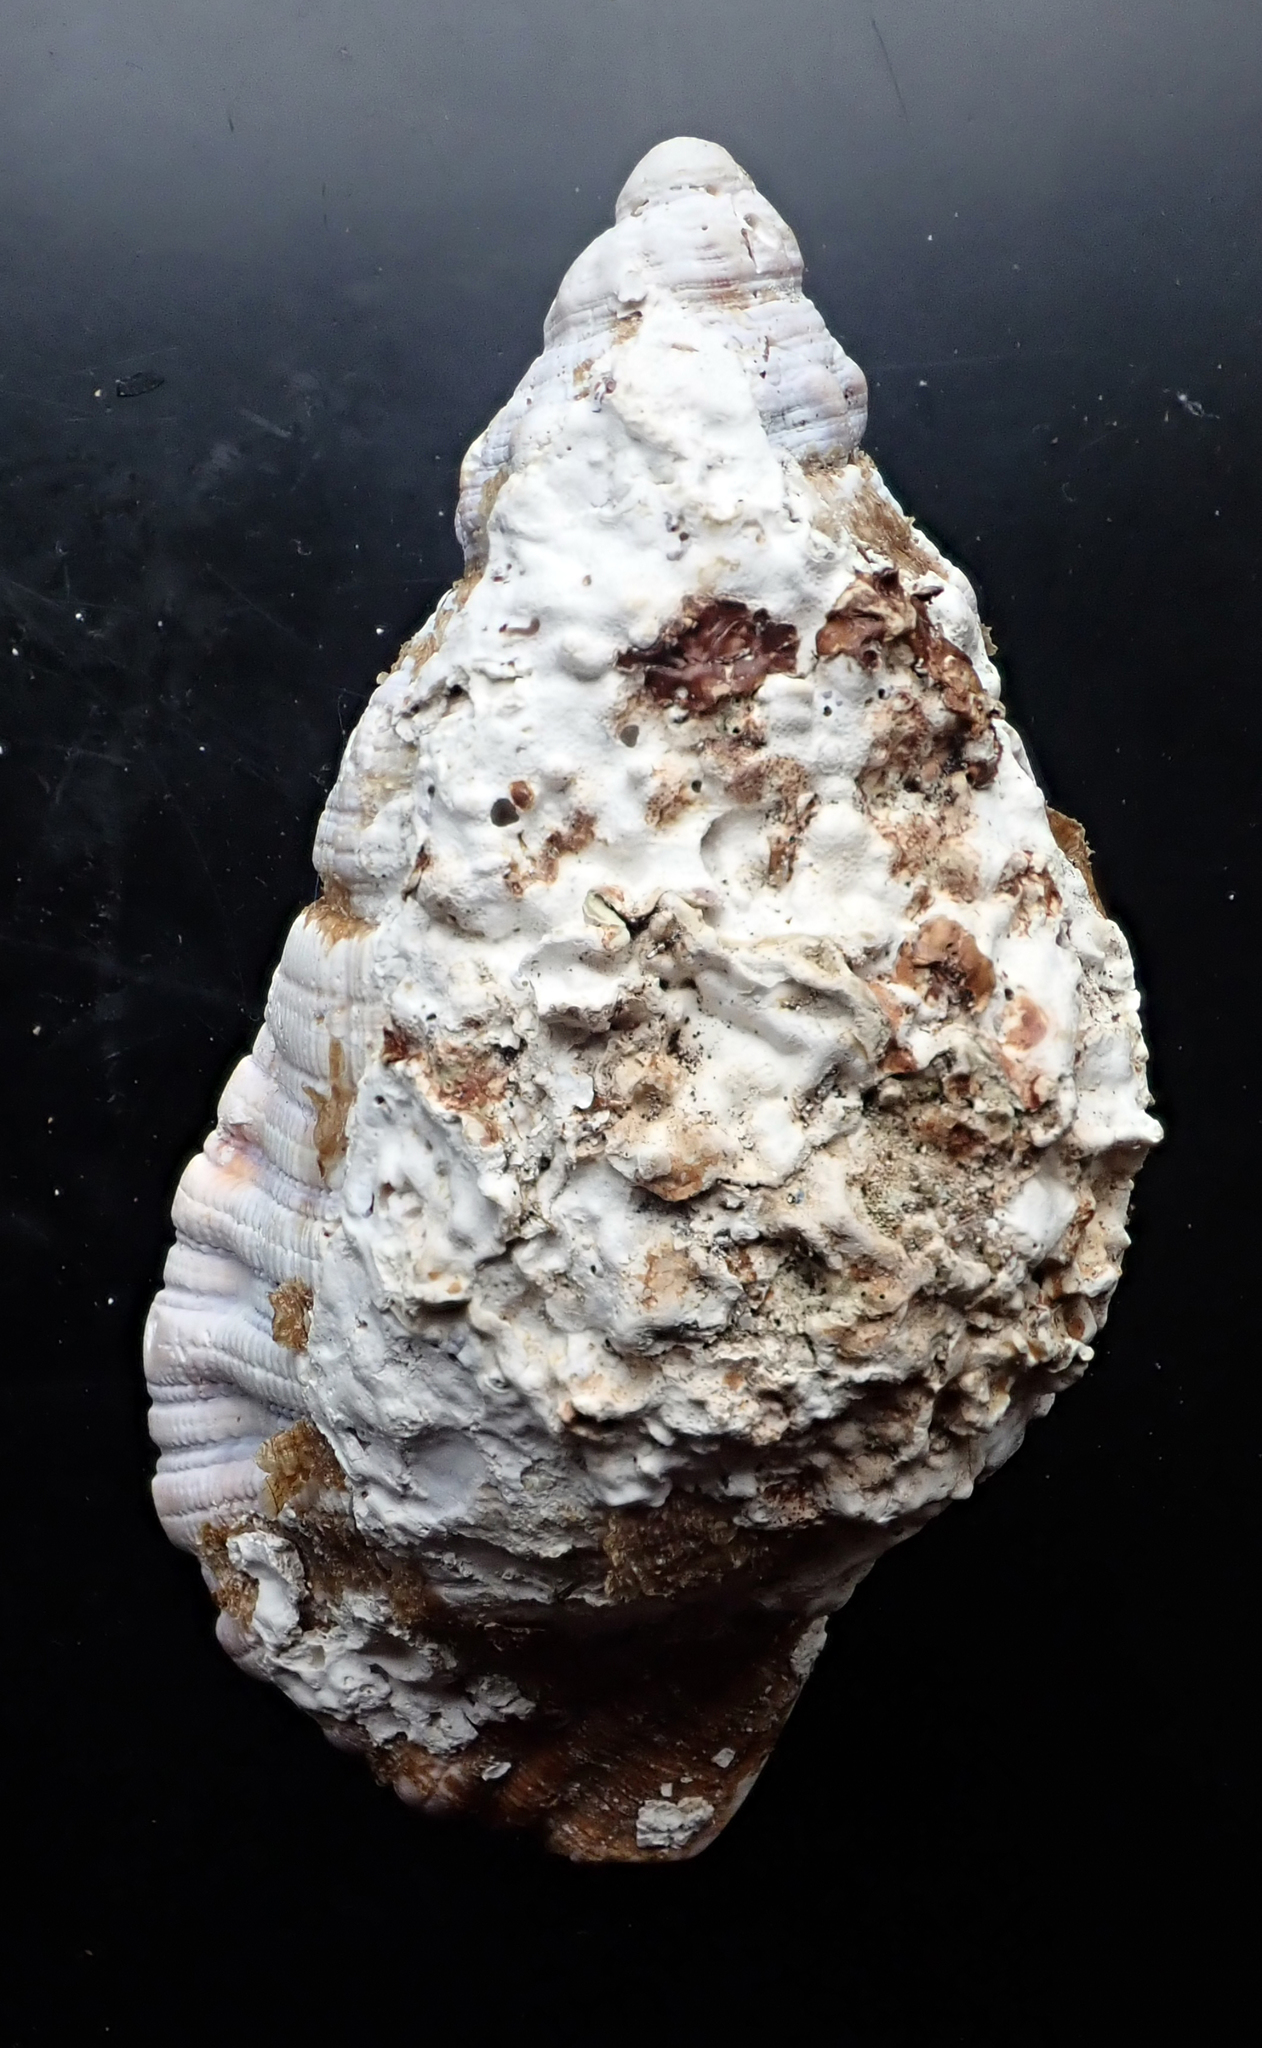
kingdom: Animalia
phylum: Mollusca
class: Gastropoda
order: Littorinimorpha
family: Cymatiidae
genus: Cabestana
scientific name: Cabestana spengleri
